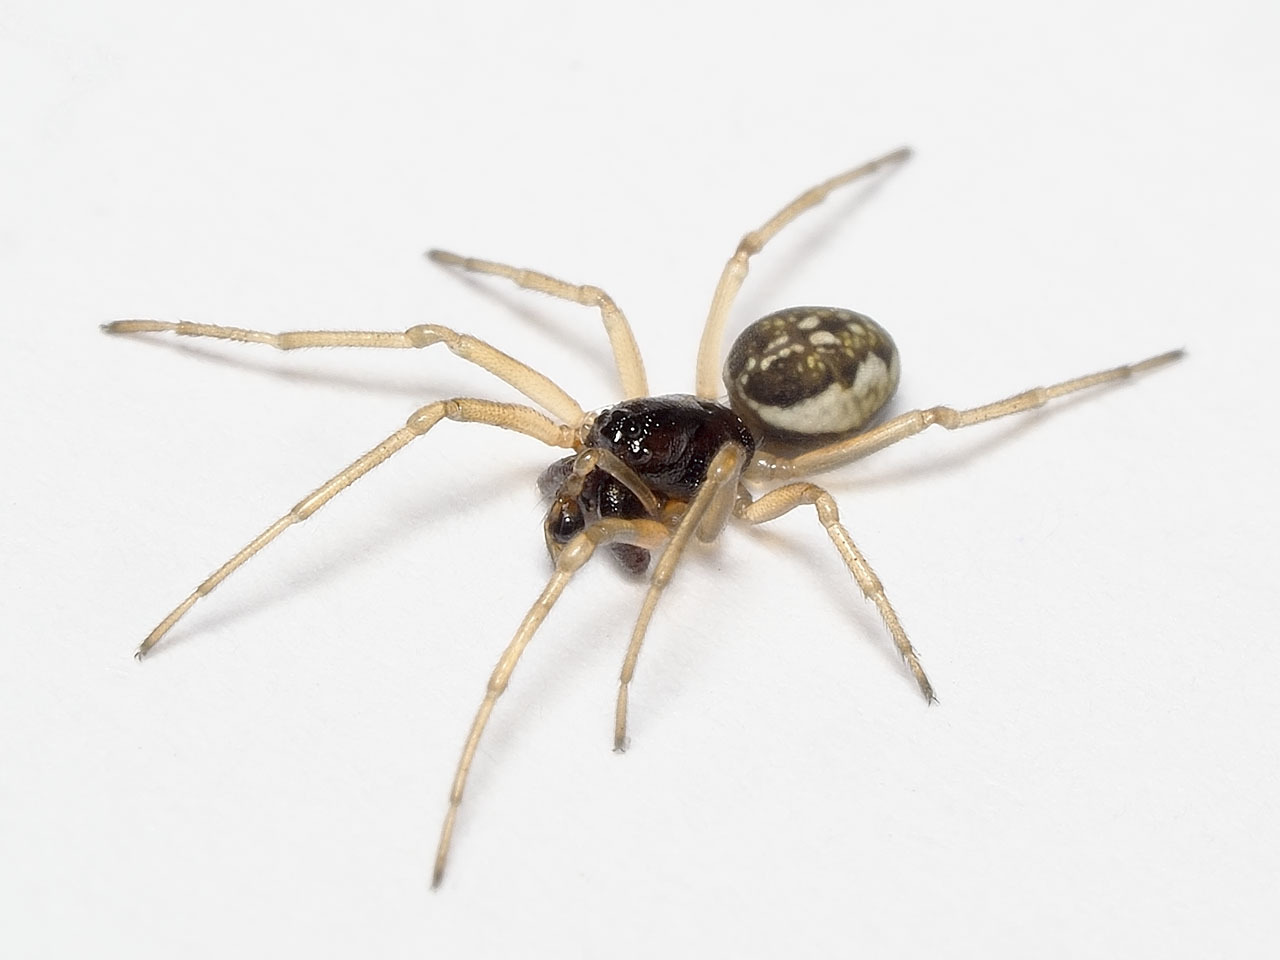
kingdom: Animalia
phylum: Arthropoda
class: Arachnida
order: Araneae
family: Tetragnathidae
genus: Pachygnatha
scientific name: Pachygnatha degeeri
